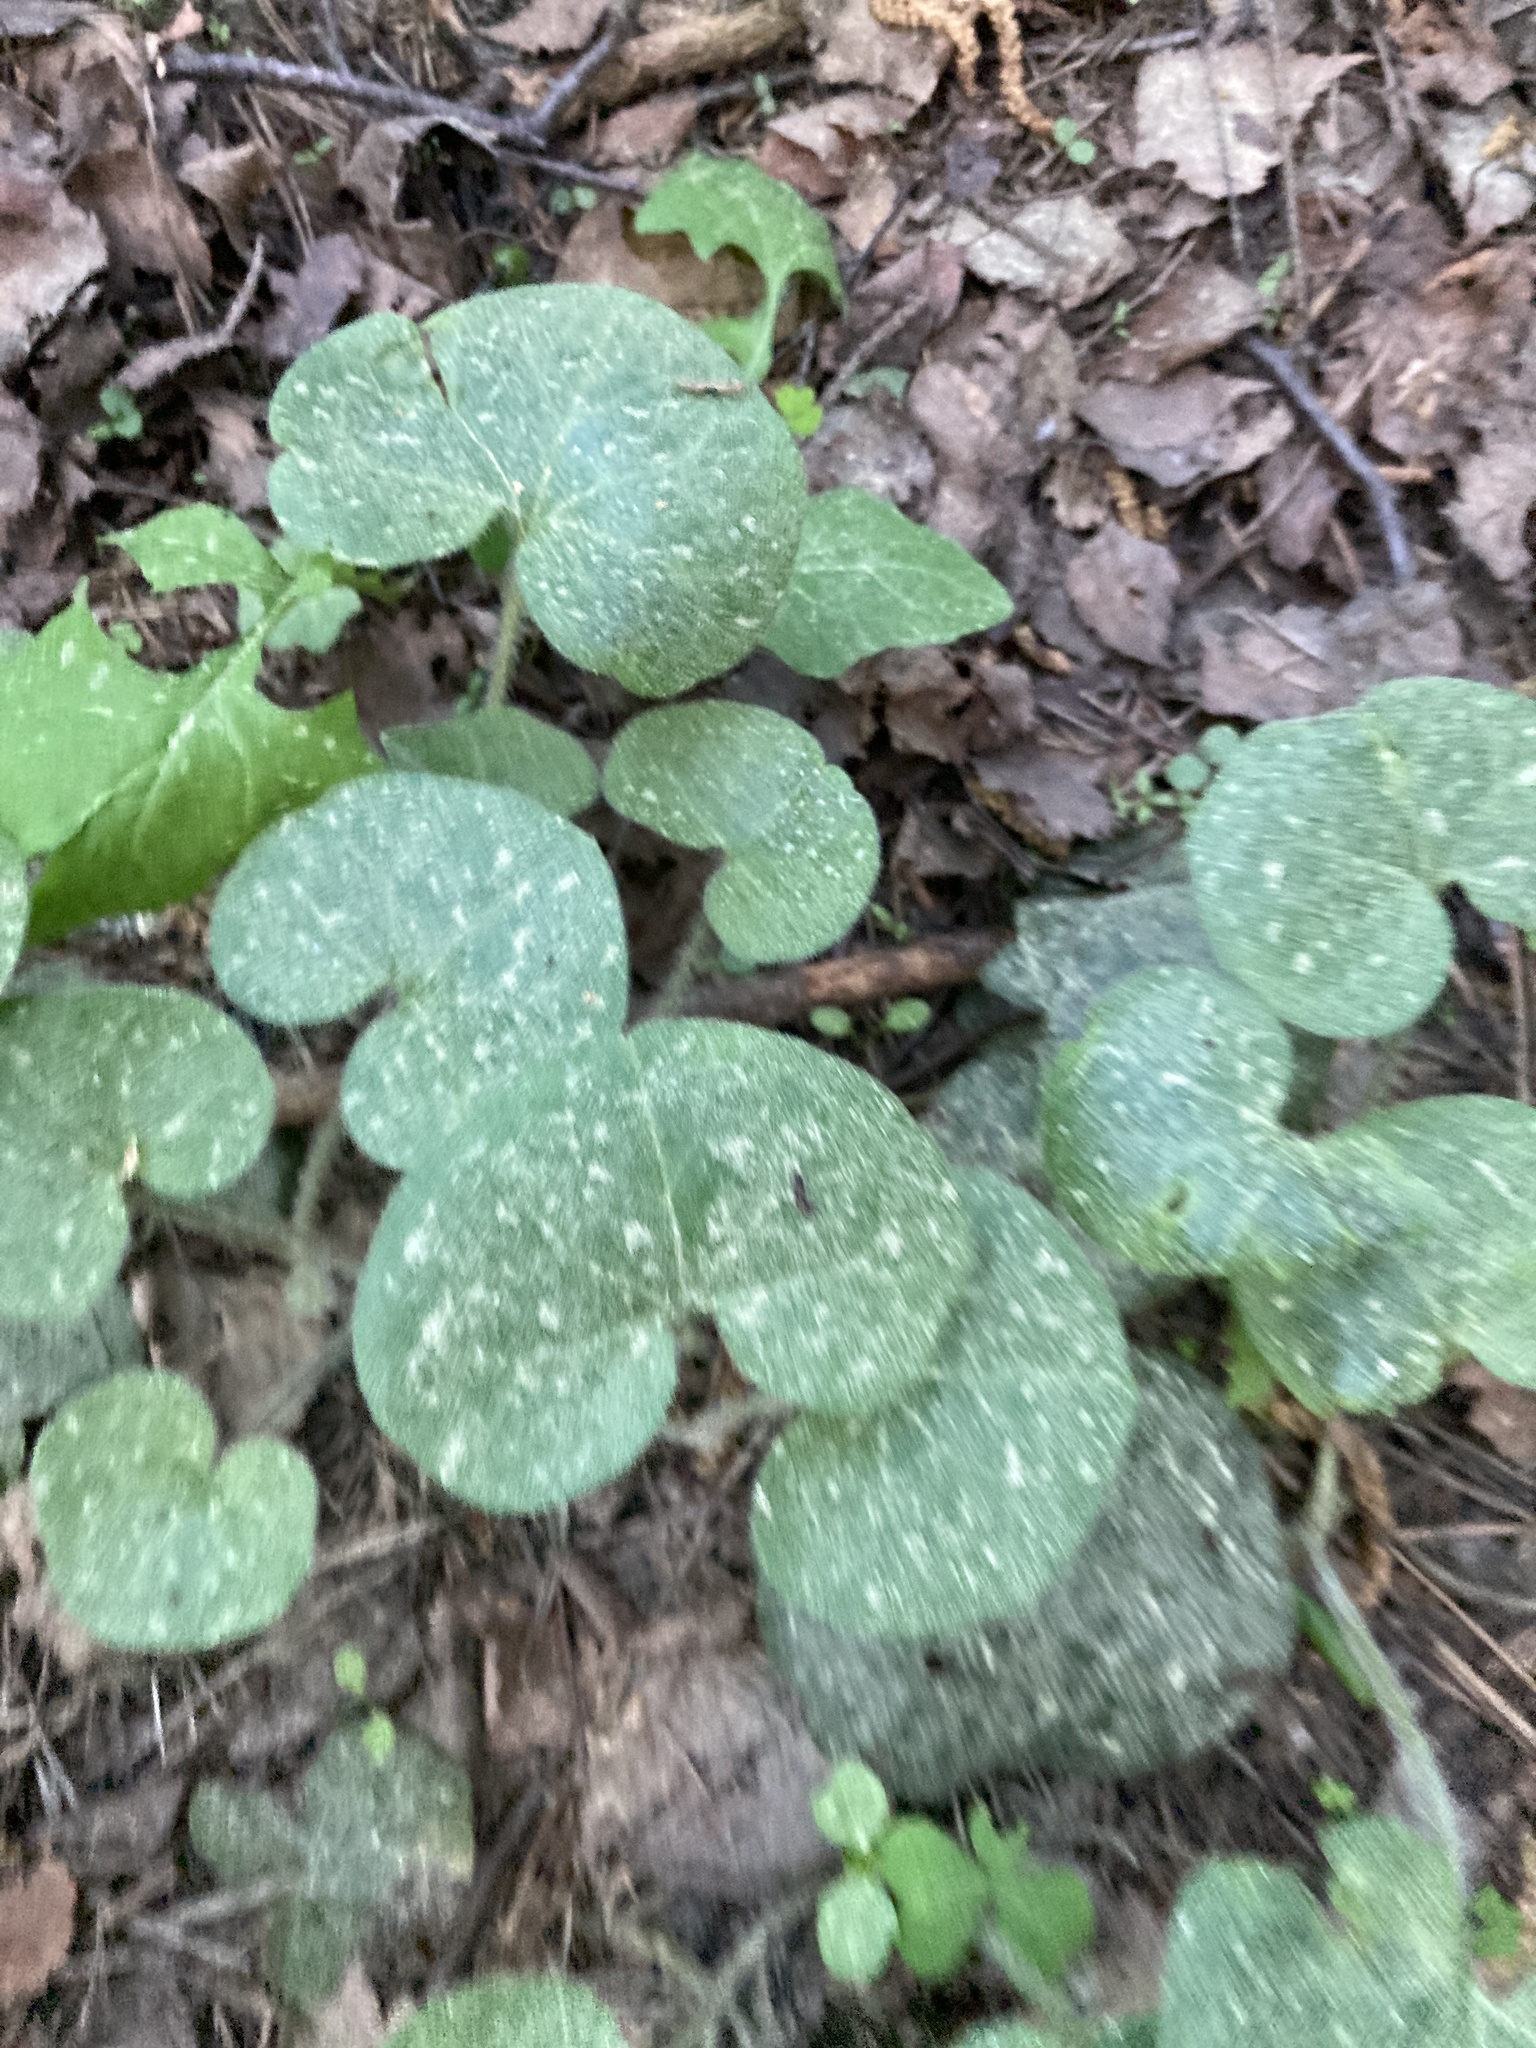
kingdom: Plantae
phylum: Tracheophyta
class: Magnoliopsida
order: Piperales
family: Aristolochiaceae
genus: Asarum
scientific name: Asarum europaeum
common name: Asarabacca
